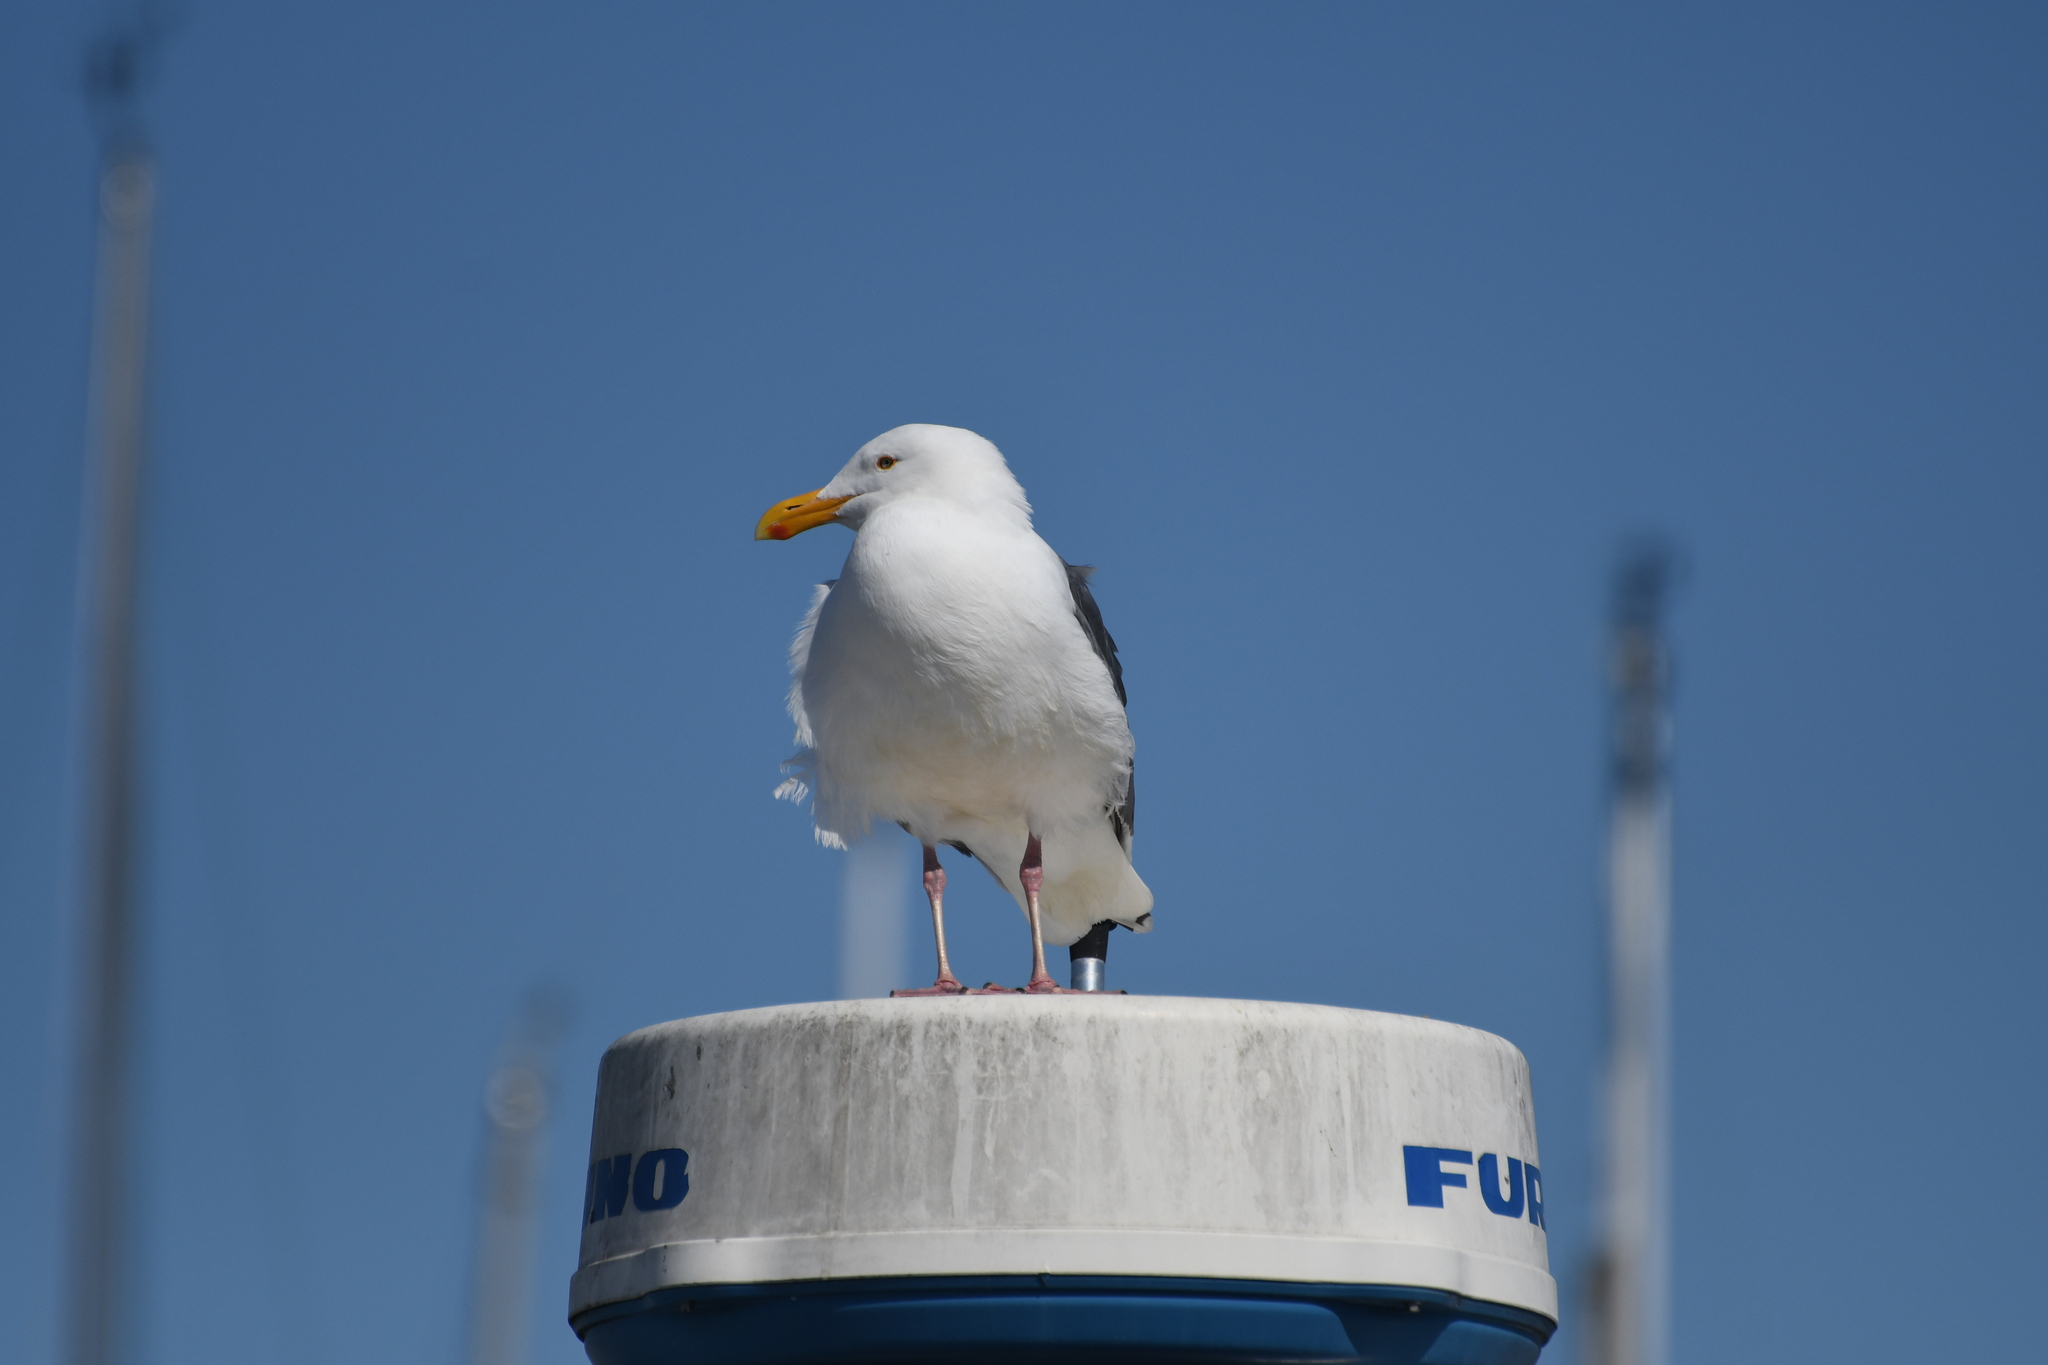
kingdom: Animalia
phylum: Chordata
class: Aves
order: Charadriiformes
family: Laridae
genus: Larus
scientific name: Larus occidentalis
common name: Western gull
